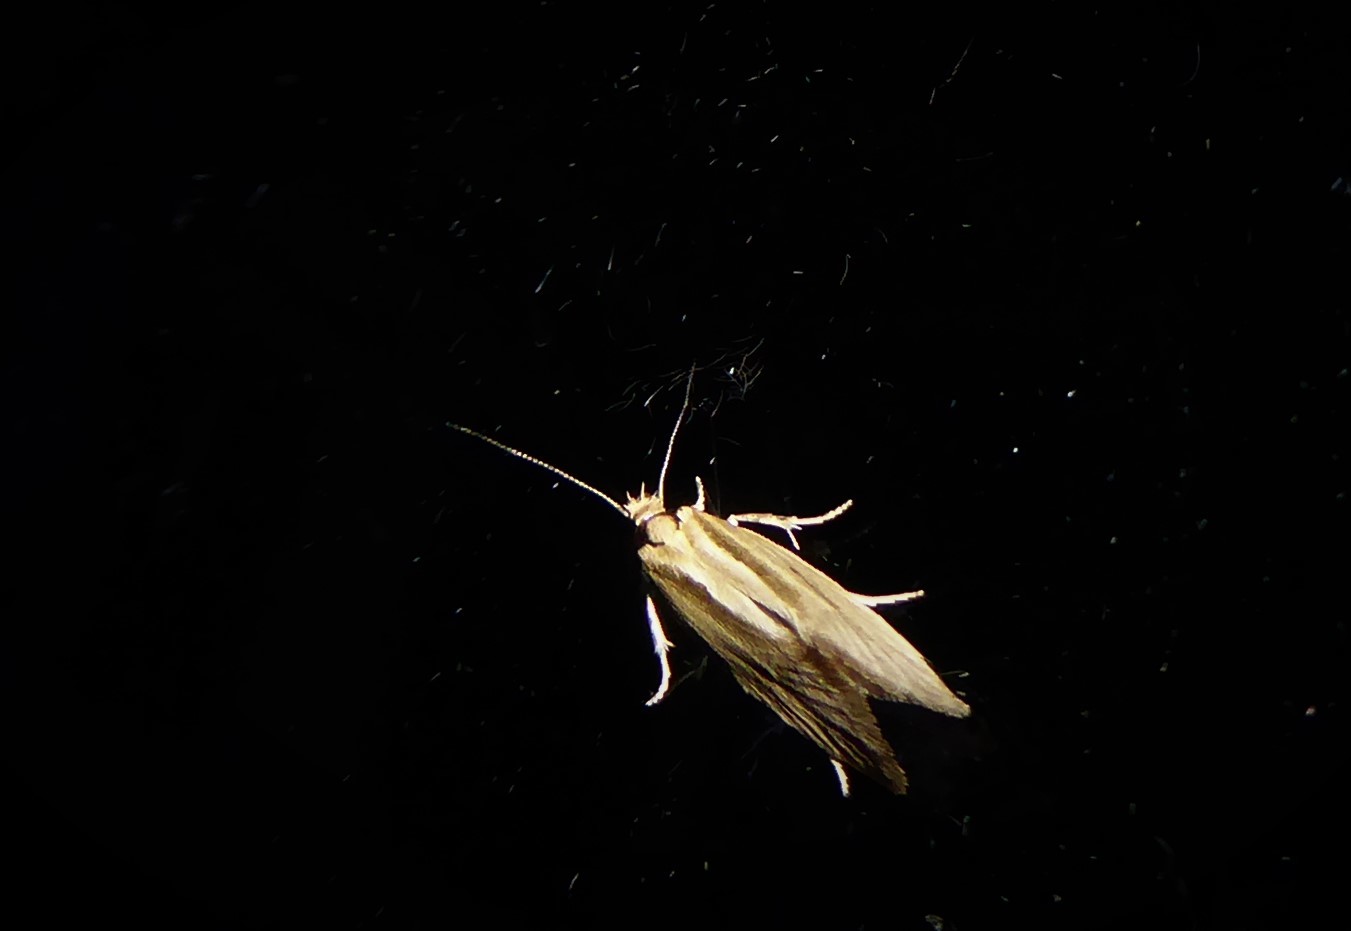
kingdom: Animalia
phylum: Arthropoda
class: Insecta
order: Lepidoptera
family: Oecophoridae
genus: Tingena
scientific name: Tingena chloradelpha
